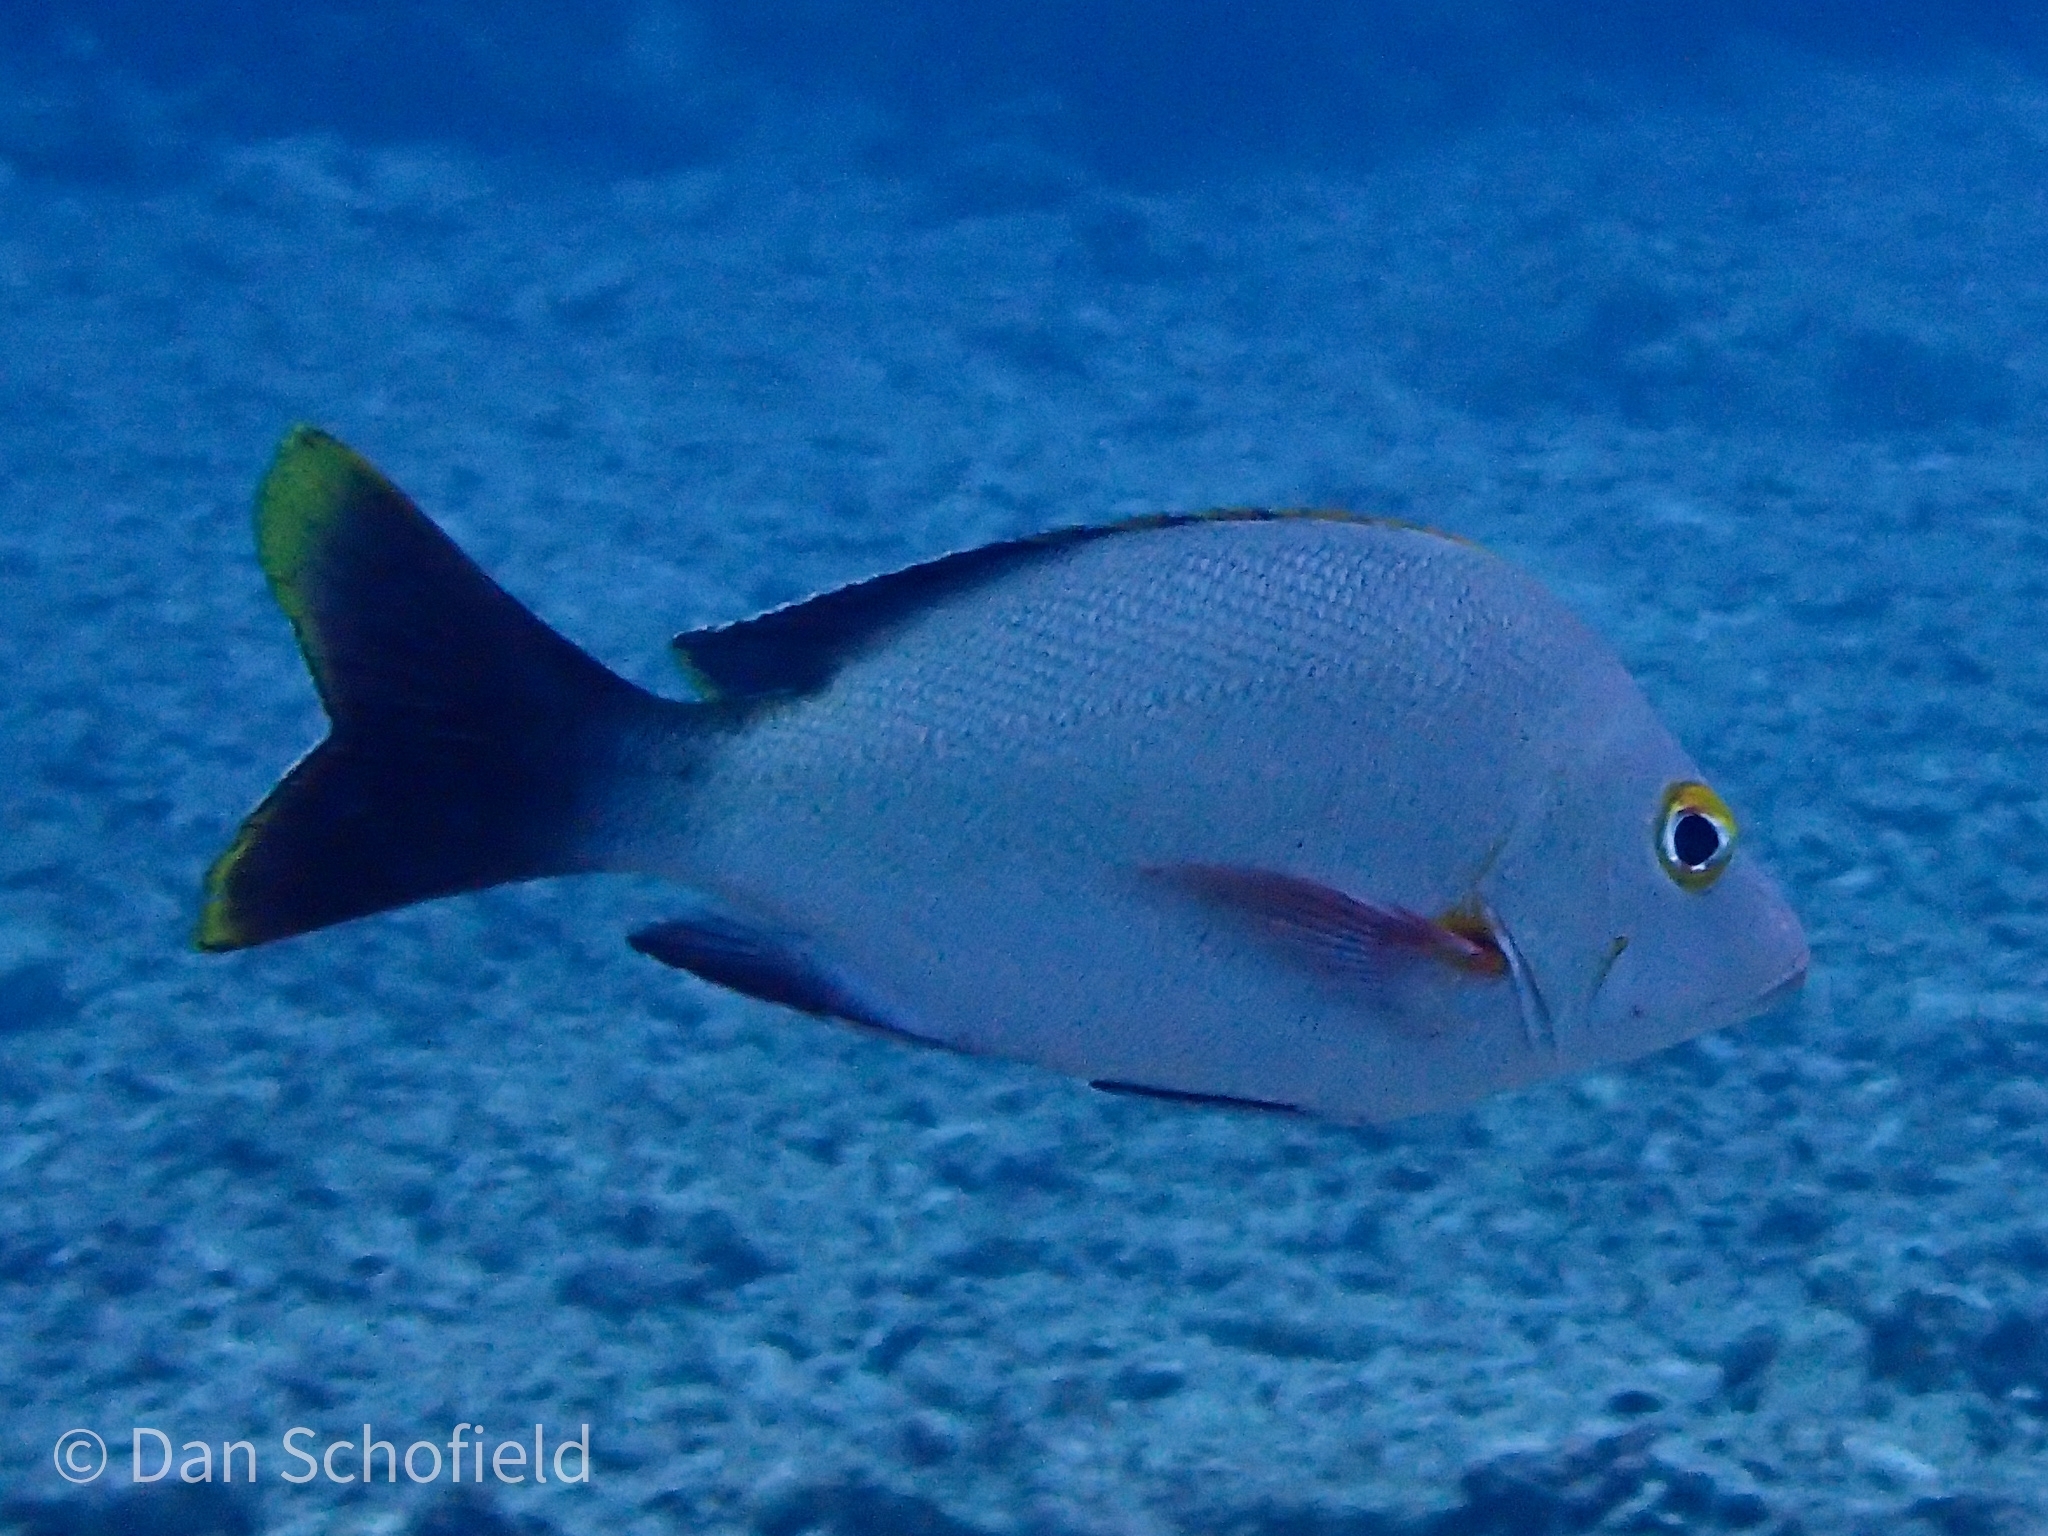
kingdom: Animalia
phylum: Chordata
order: Perciformes
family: Lutjanidae
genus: Lutjanus
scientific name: Lutjanus gibbus
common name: Humpback snapper
